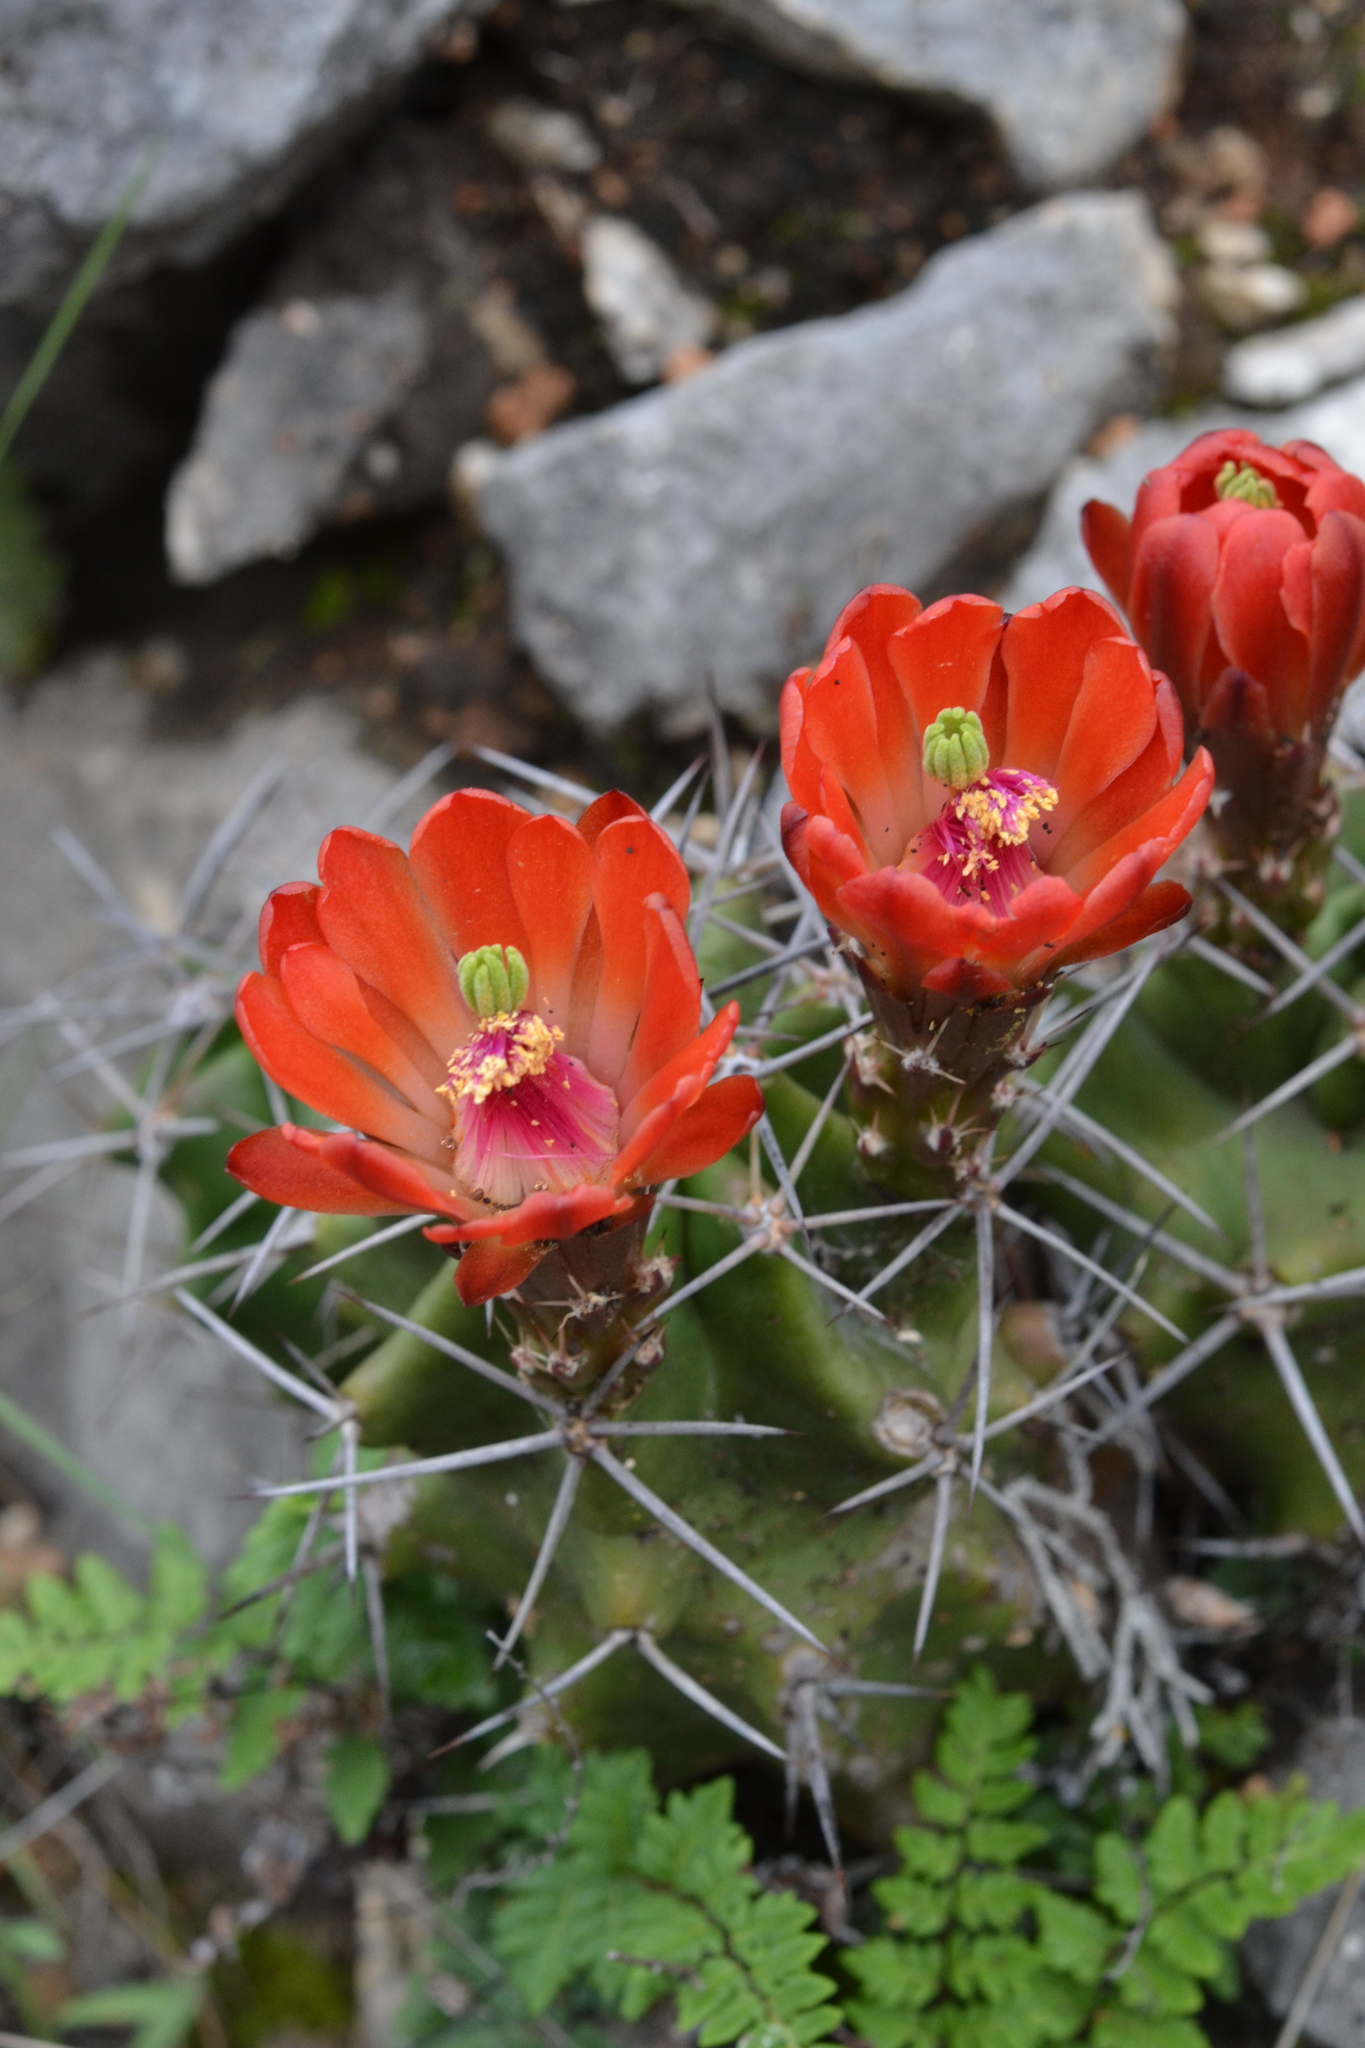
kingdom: Plantae
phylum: Tracheophyta
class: Magnoliopsida
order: Caryophyllales
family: Cactaceae
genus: Echinocereus
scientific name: Echinocereus coccineus
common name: Scarlet hedgehog cactus
